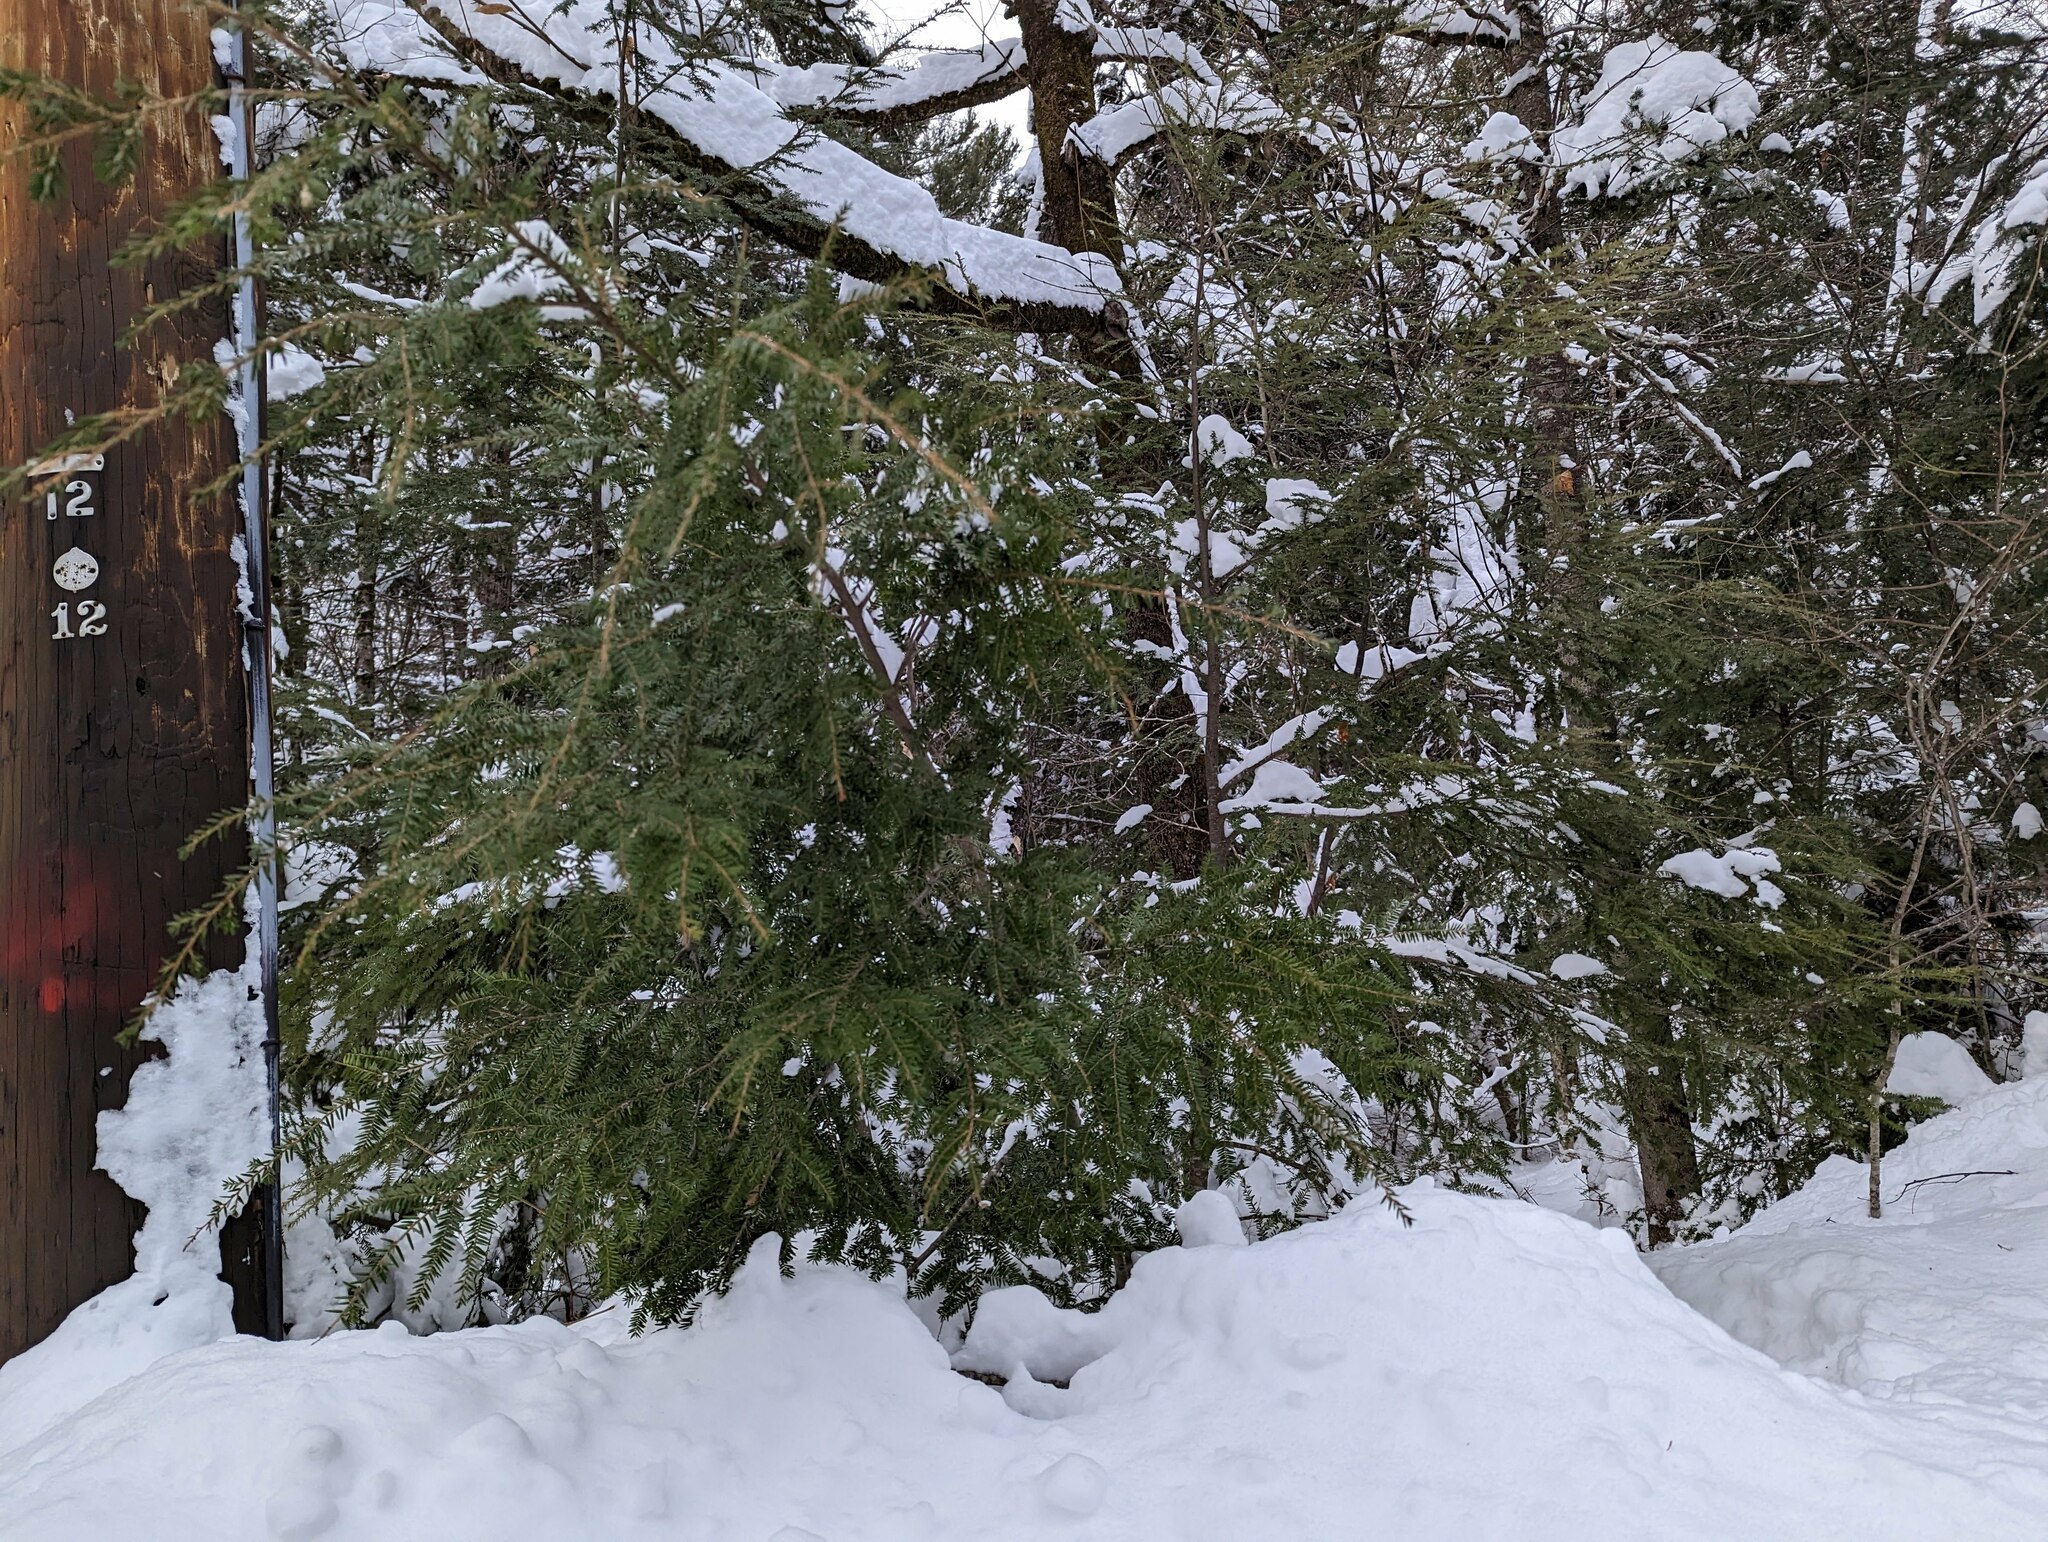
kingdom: Plantae
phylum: Tracheophyta
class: Pinopsida
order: Pinales
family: Pinaceae
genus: Tsuga
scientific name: Tsuga canadensis
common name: Eastern hemlock
